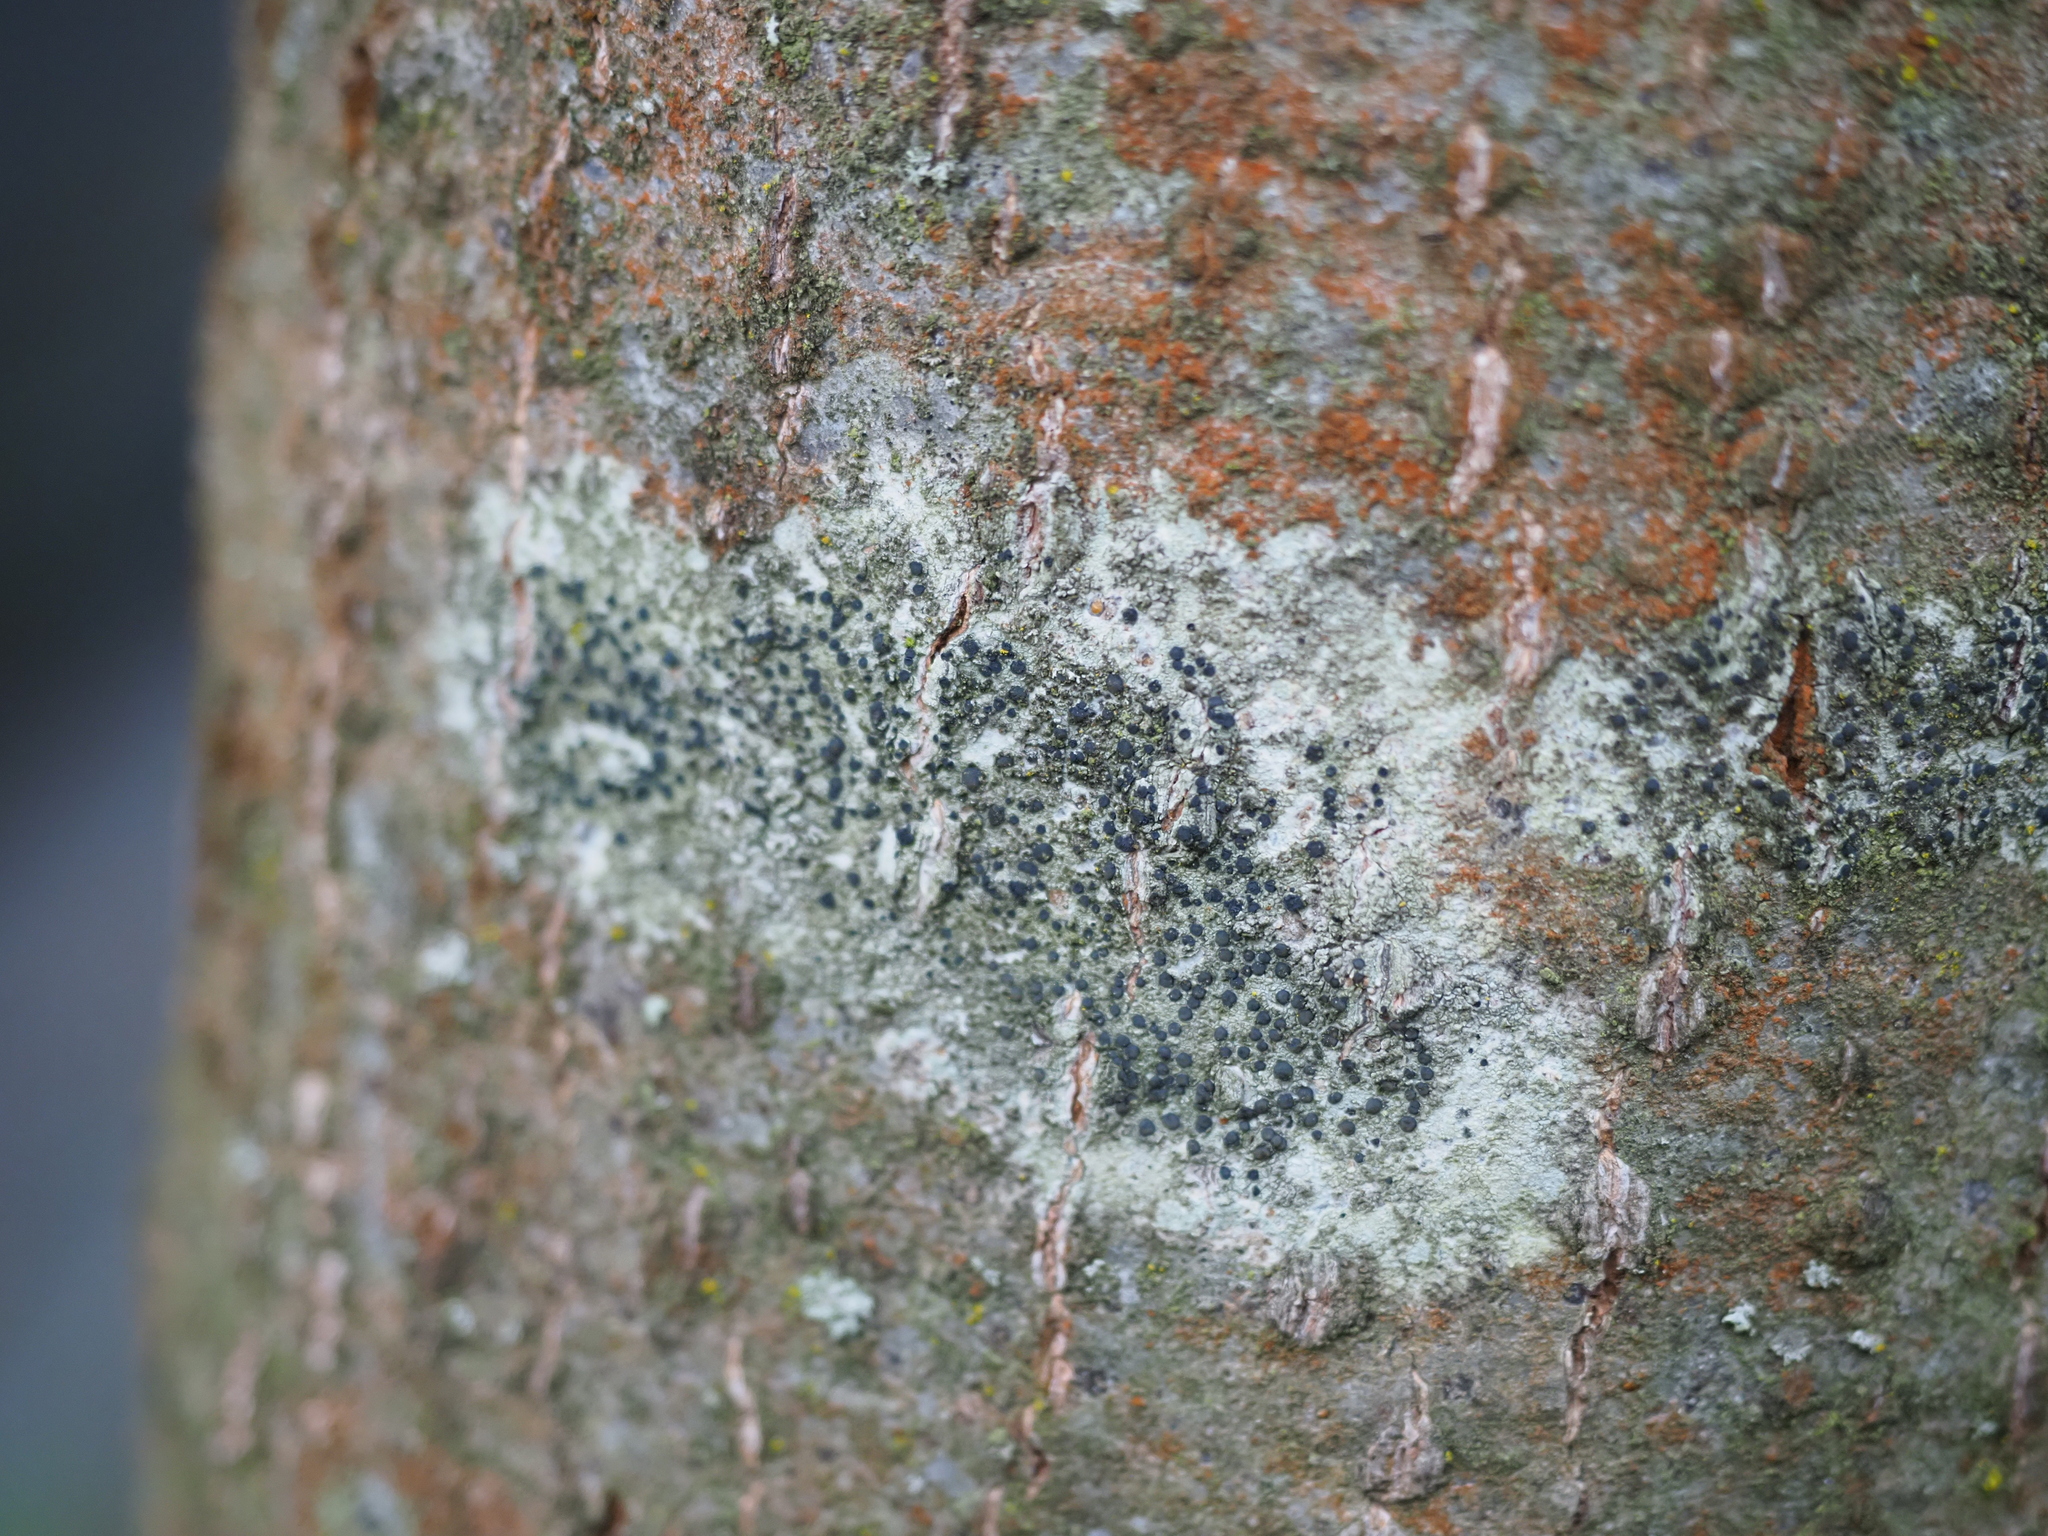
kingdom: Fungi
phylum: Ascomycota
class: Lecanoromycetes
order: Lecanorales
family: Lecanoraceae
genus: Lecidella
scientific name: Lecidella elaeochroma
